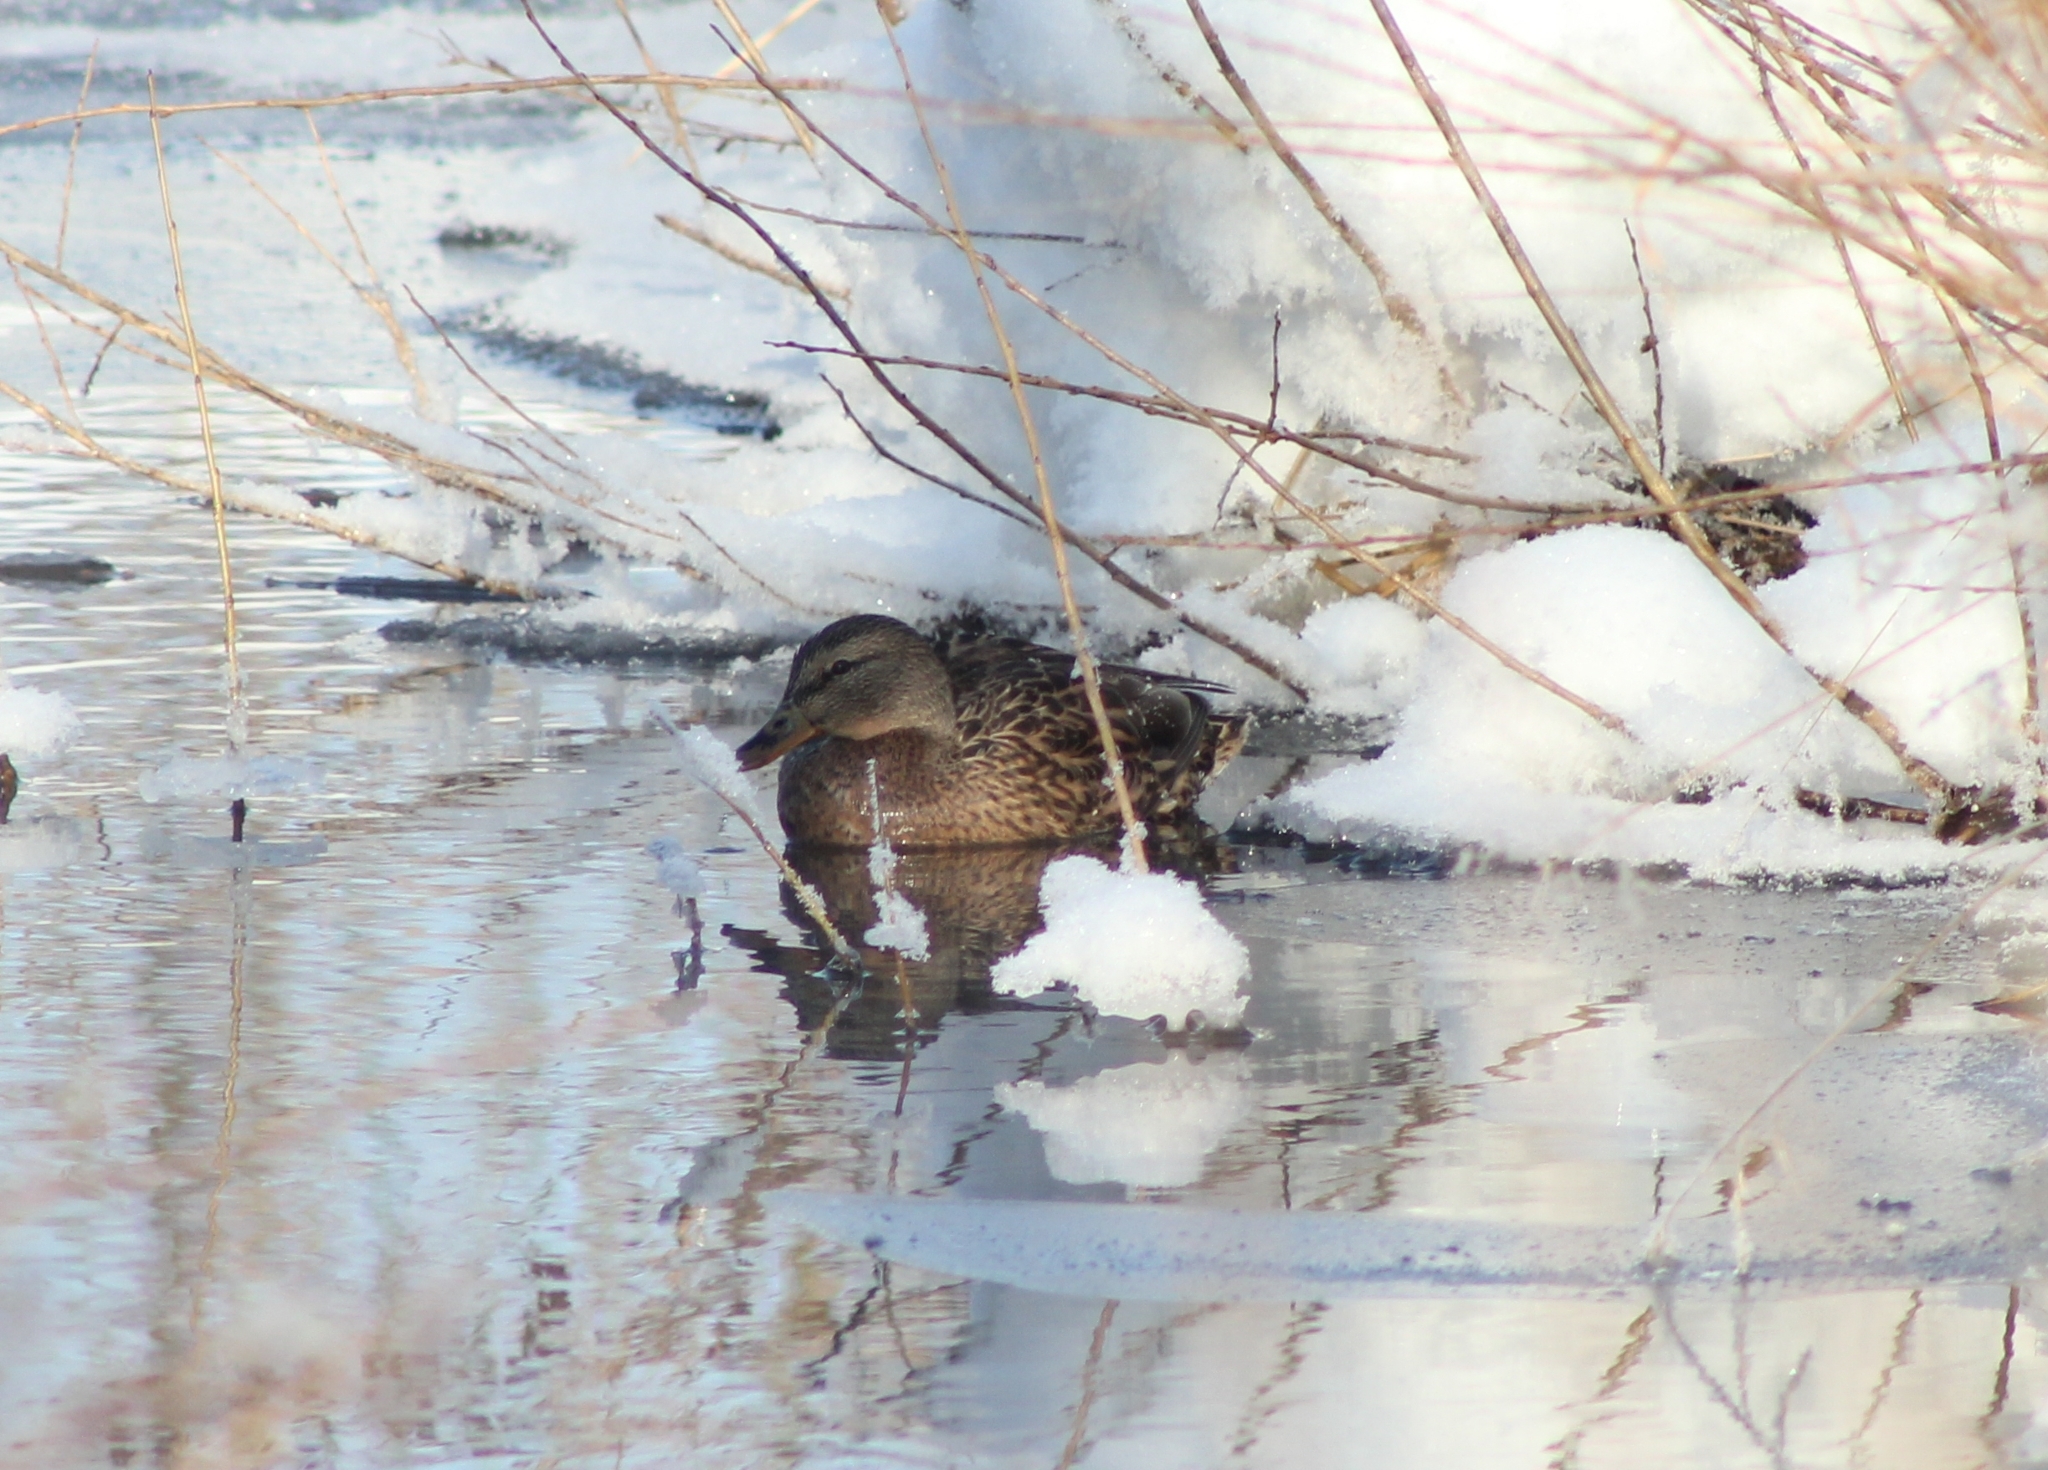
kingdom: Animalia
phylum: Chordata
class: Aves
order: Anseriformes
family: Anatidae
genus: Anas
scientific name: Anas platyrhynchos
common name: Mallard
